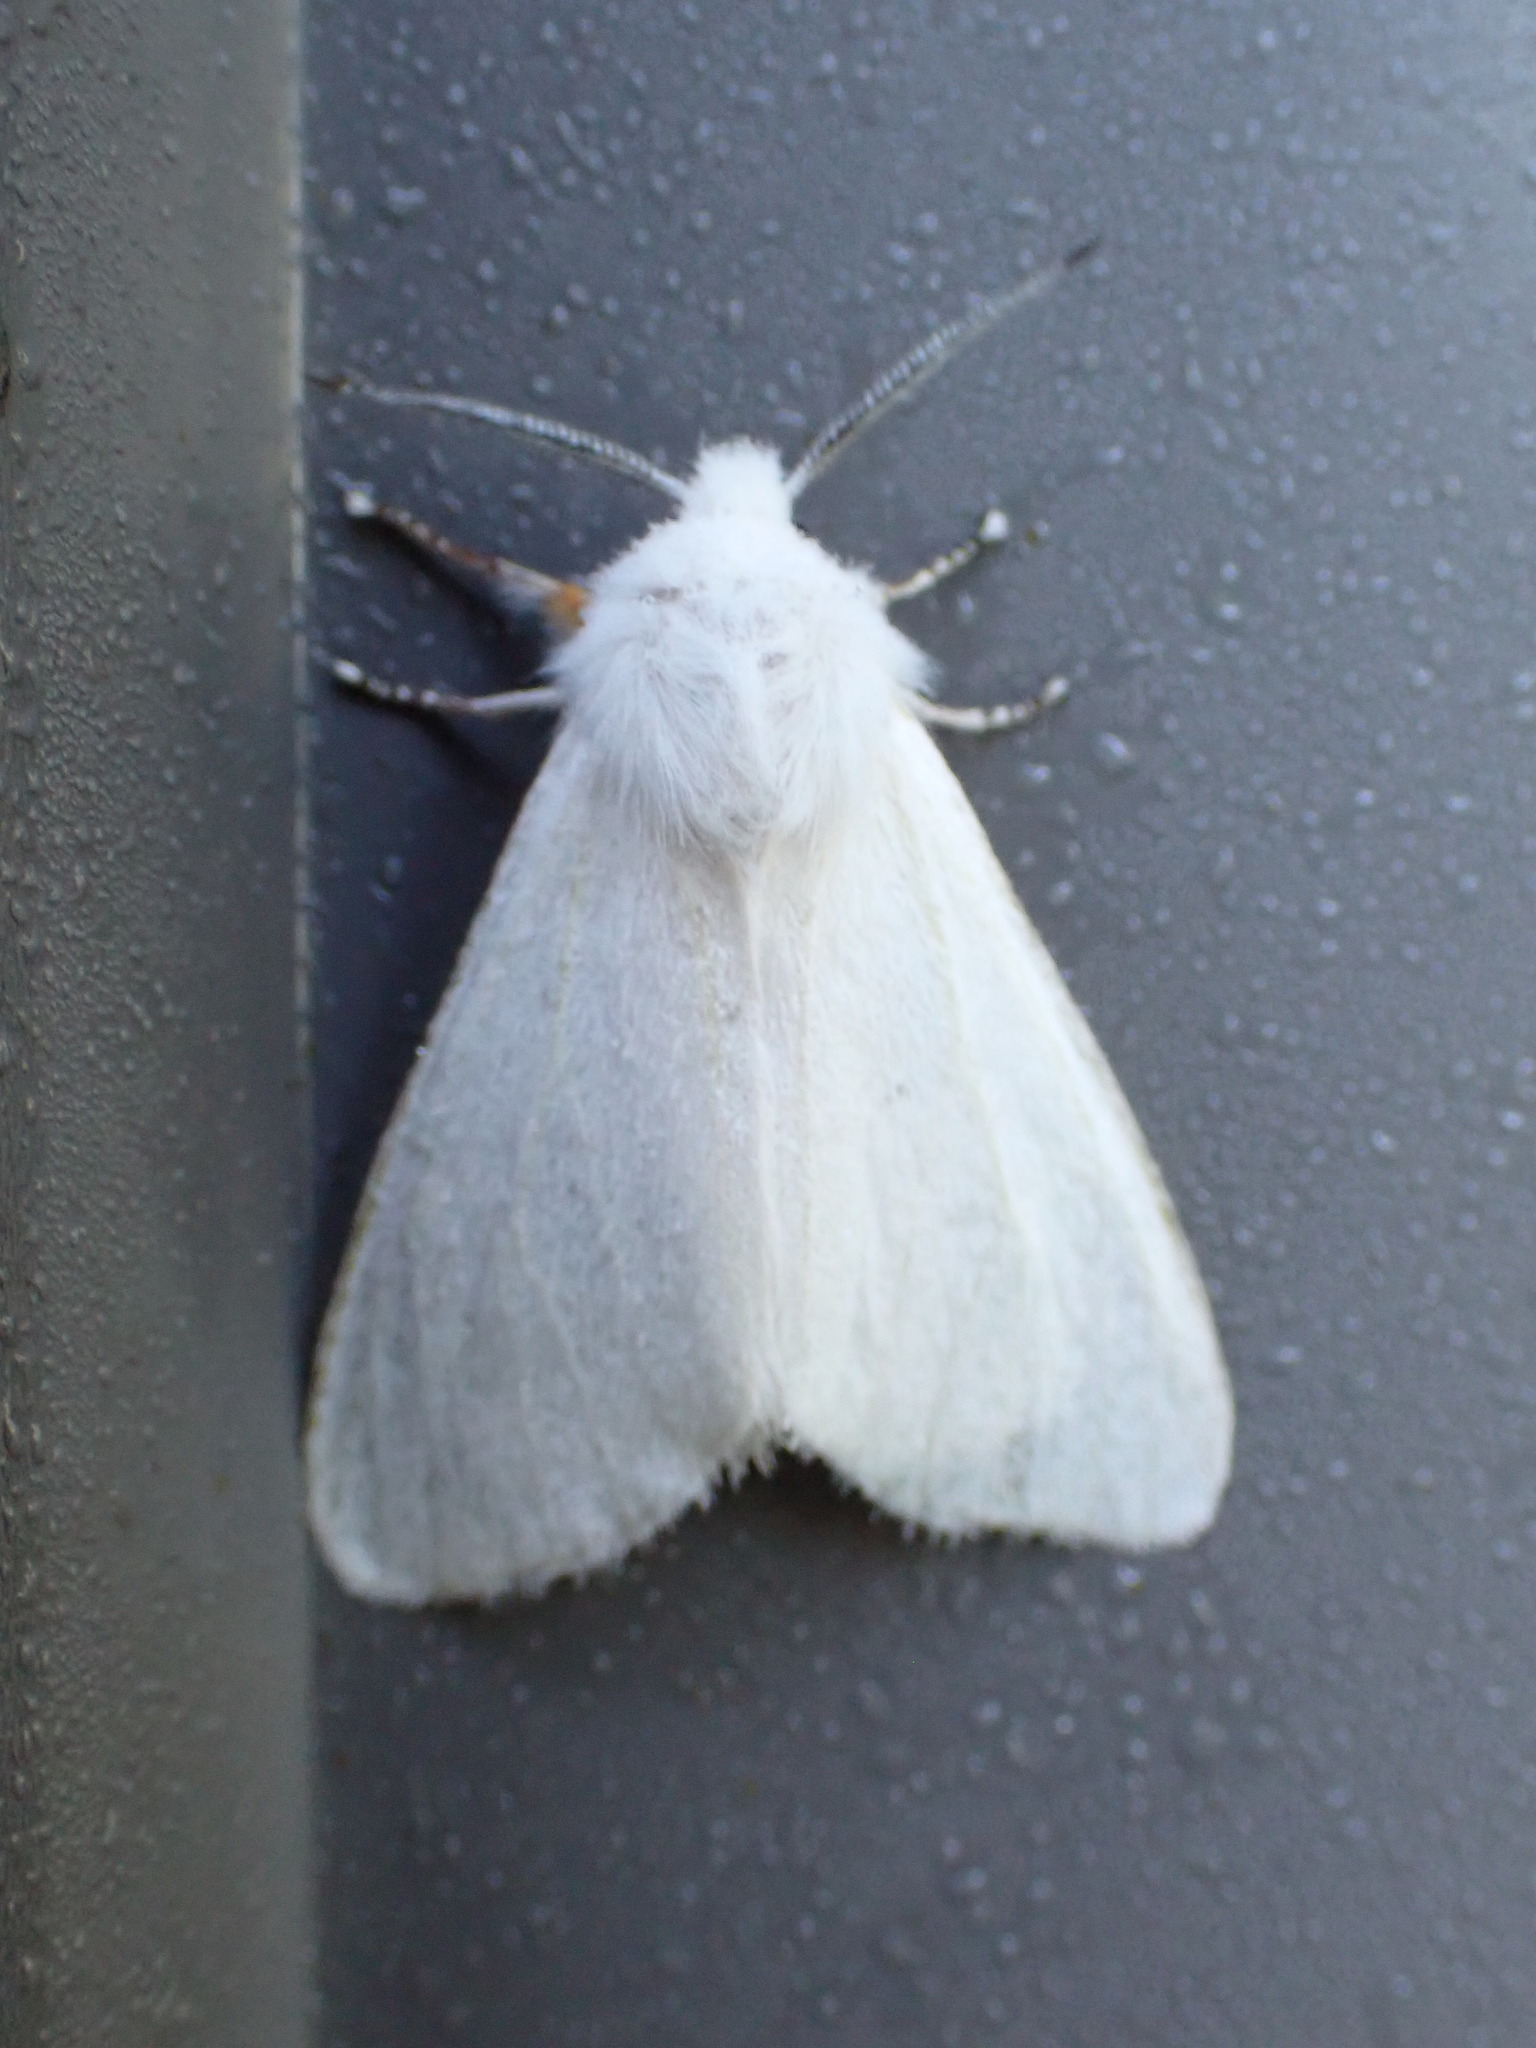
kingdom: Animalia
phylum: Arthropoda
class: Insecta
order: Lepidoptera
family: Erebidae
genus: Hyphantria
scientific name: Hyphantria cunea
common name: American white moth
